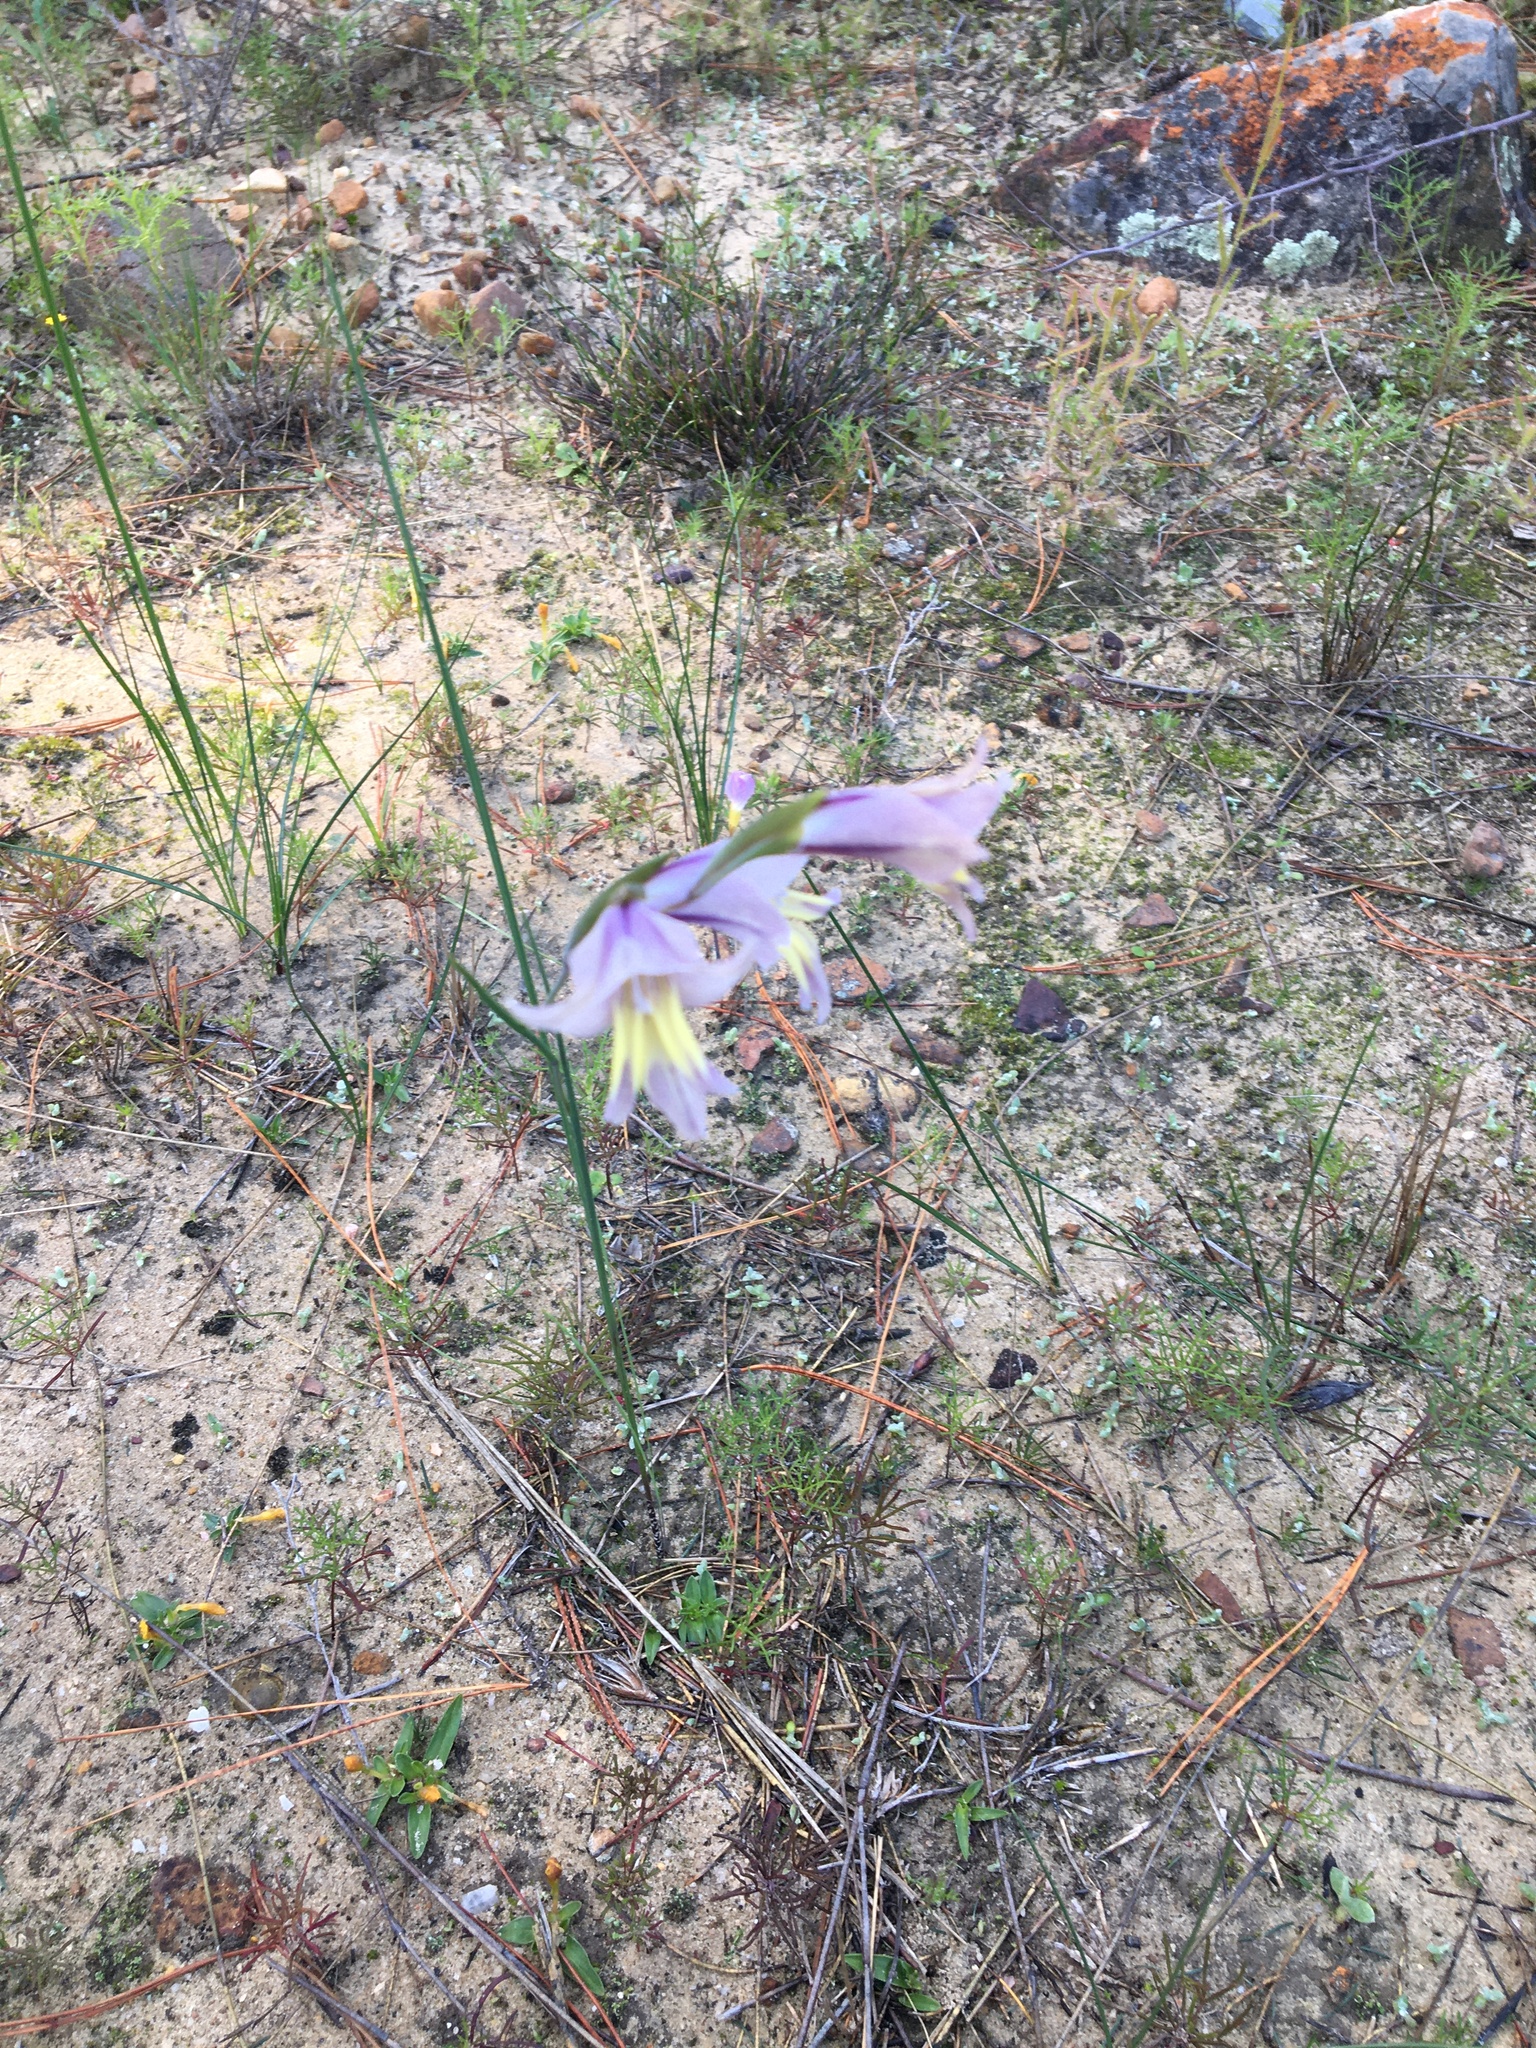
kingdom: Plantae
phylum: Tracheophyta
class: Liliopsida
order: Asparagales
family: Iridaceae
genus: Gladiolus
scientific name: Gladiolus carinatus
